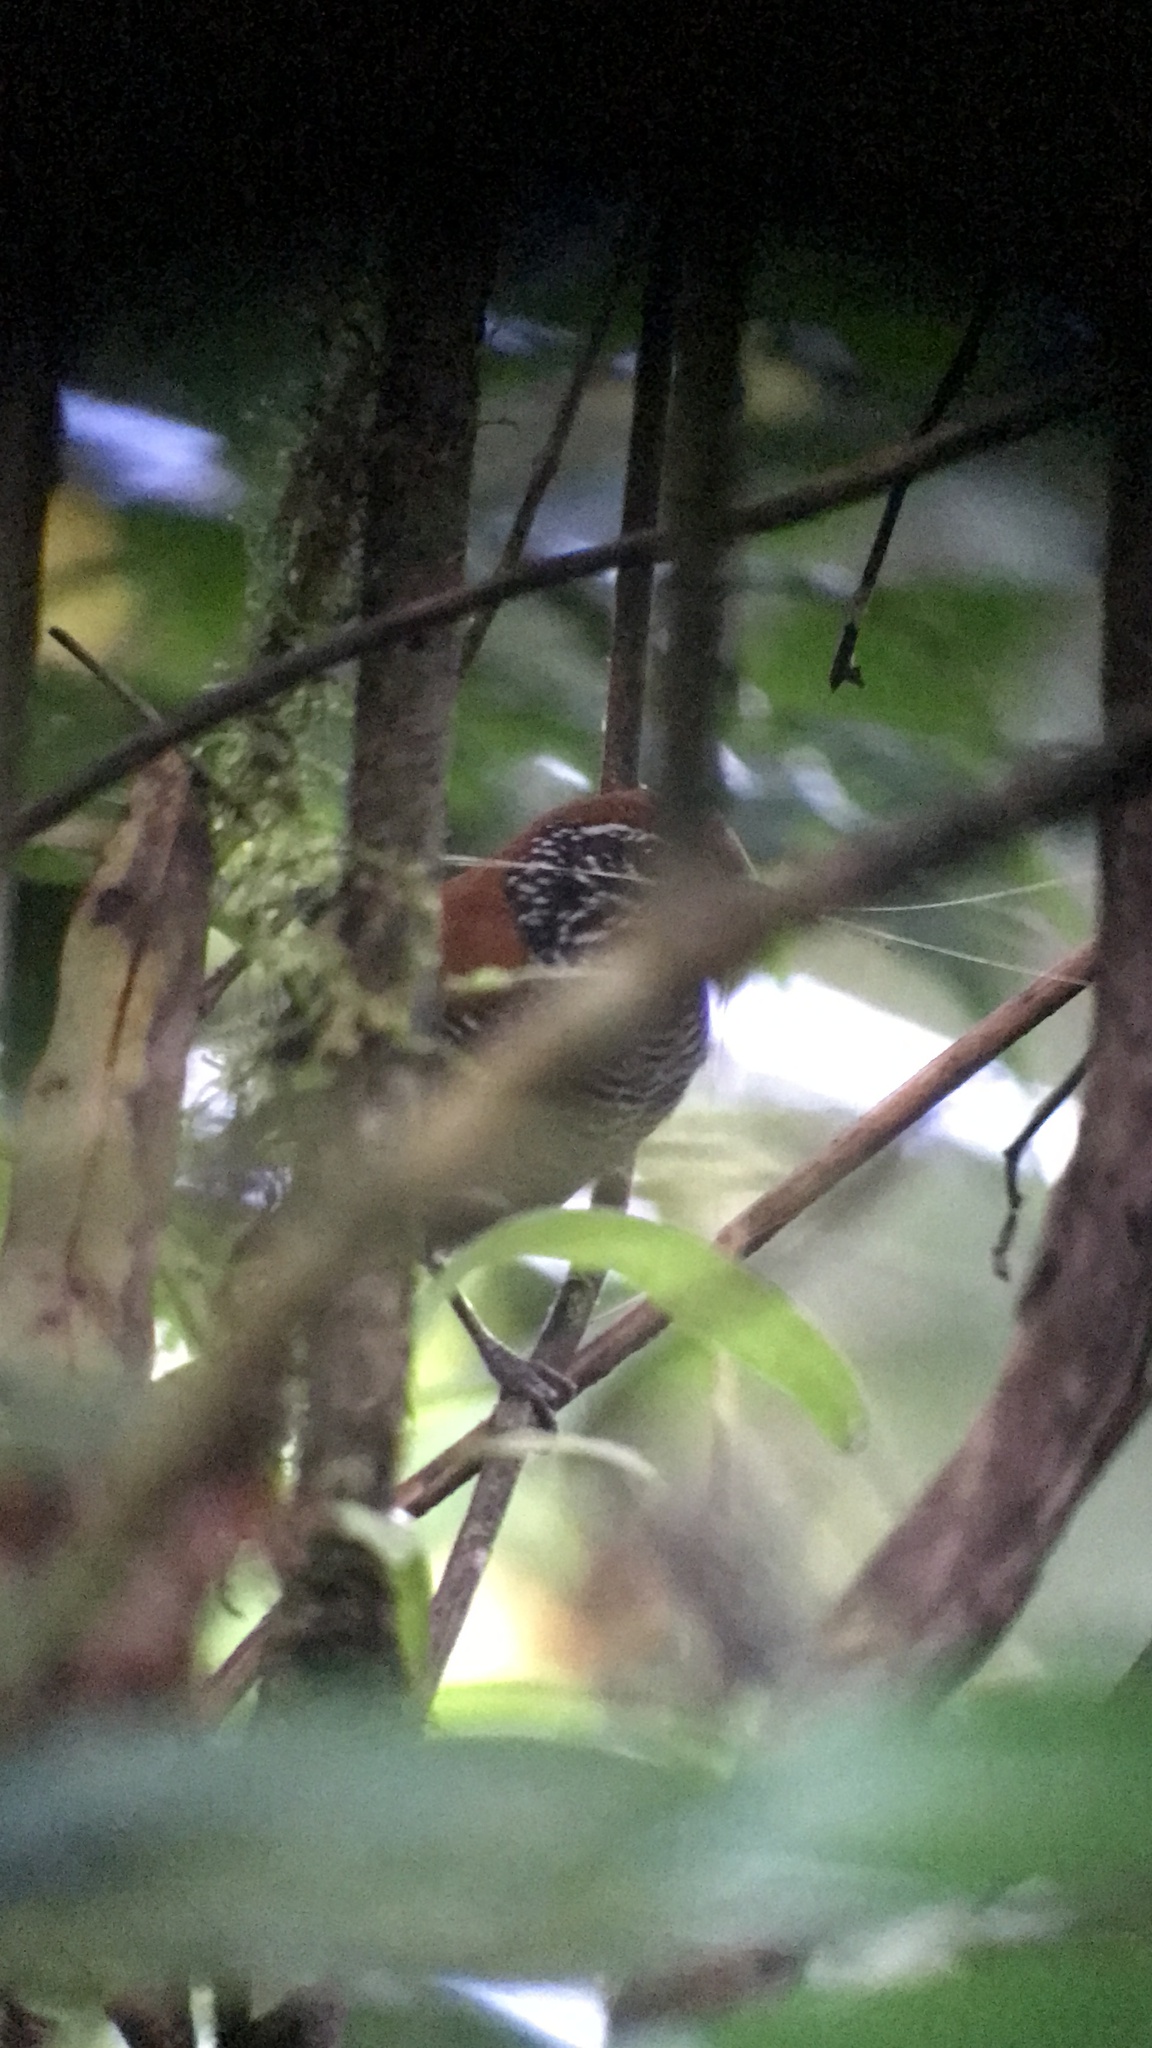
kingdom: Animalia
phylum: Chordata
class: Aves
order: Passeriformes
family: Troglodytidae
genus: Cantorchilus
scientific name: Cantorchilus semibadius
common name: Riverside wren
